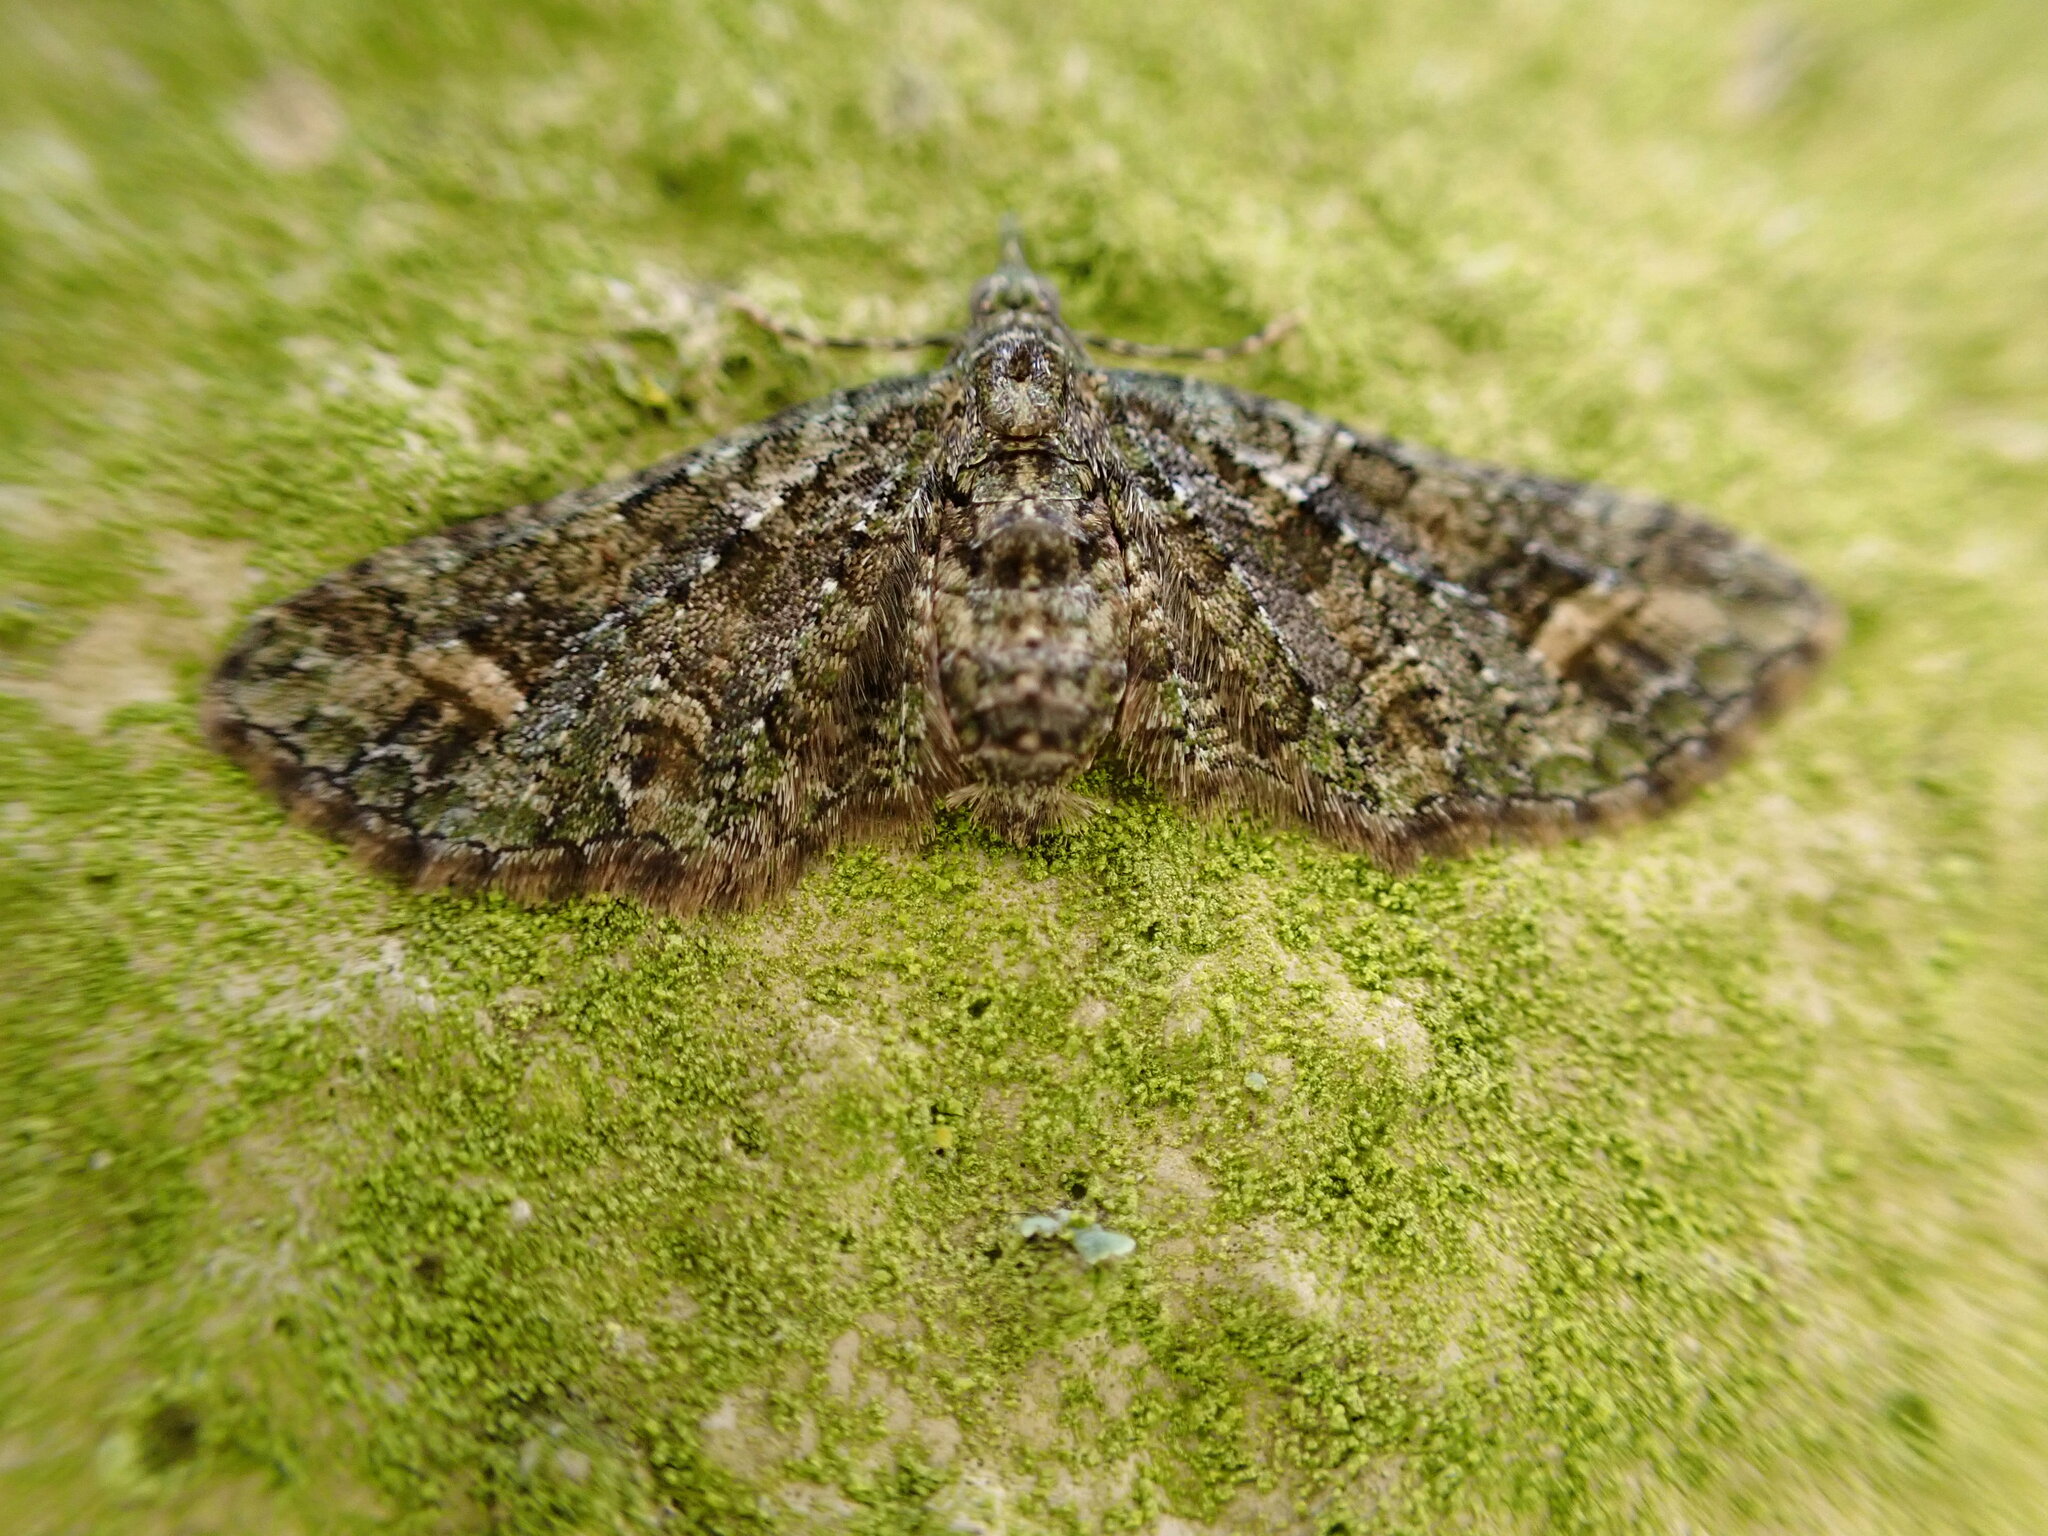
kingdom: Animalia
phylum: Arthropoda
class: Insecta
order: Lepidoptera
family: Geometridae
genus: Idaea
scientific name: Idaea mutanda
